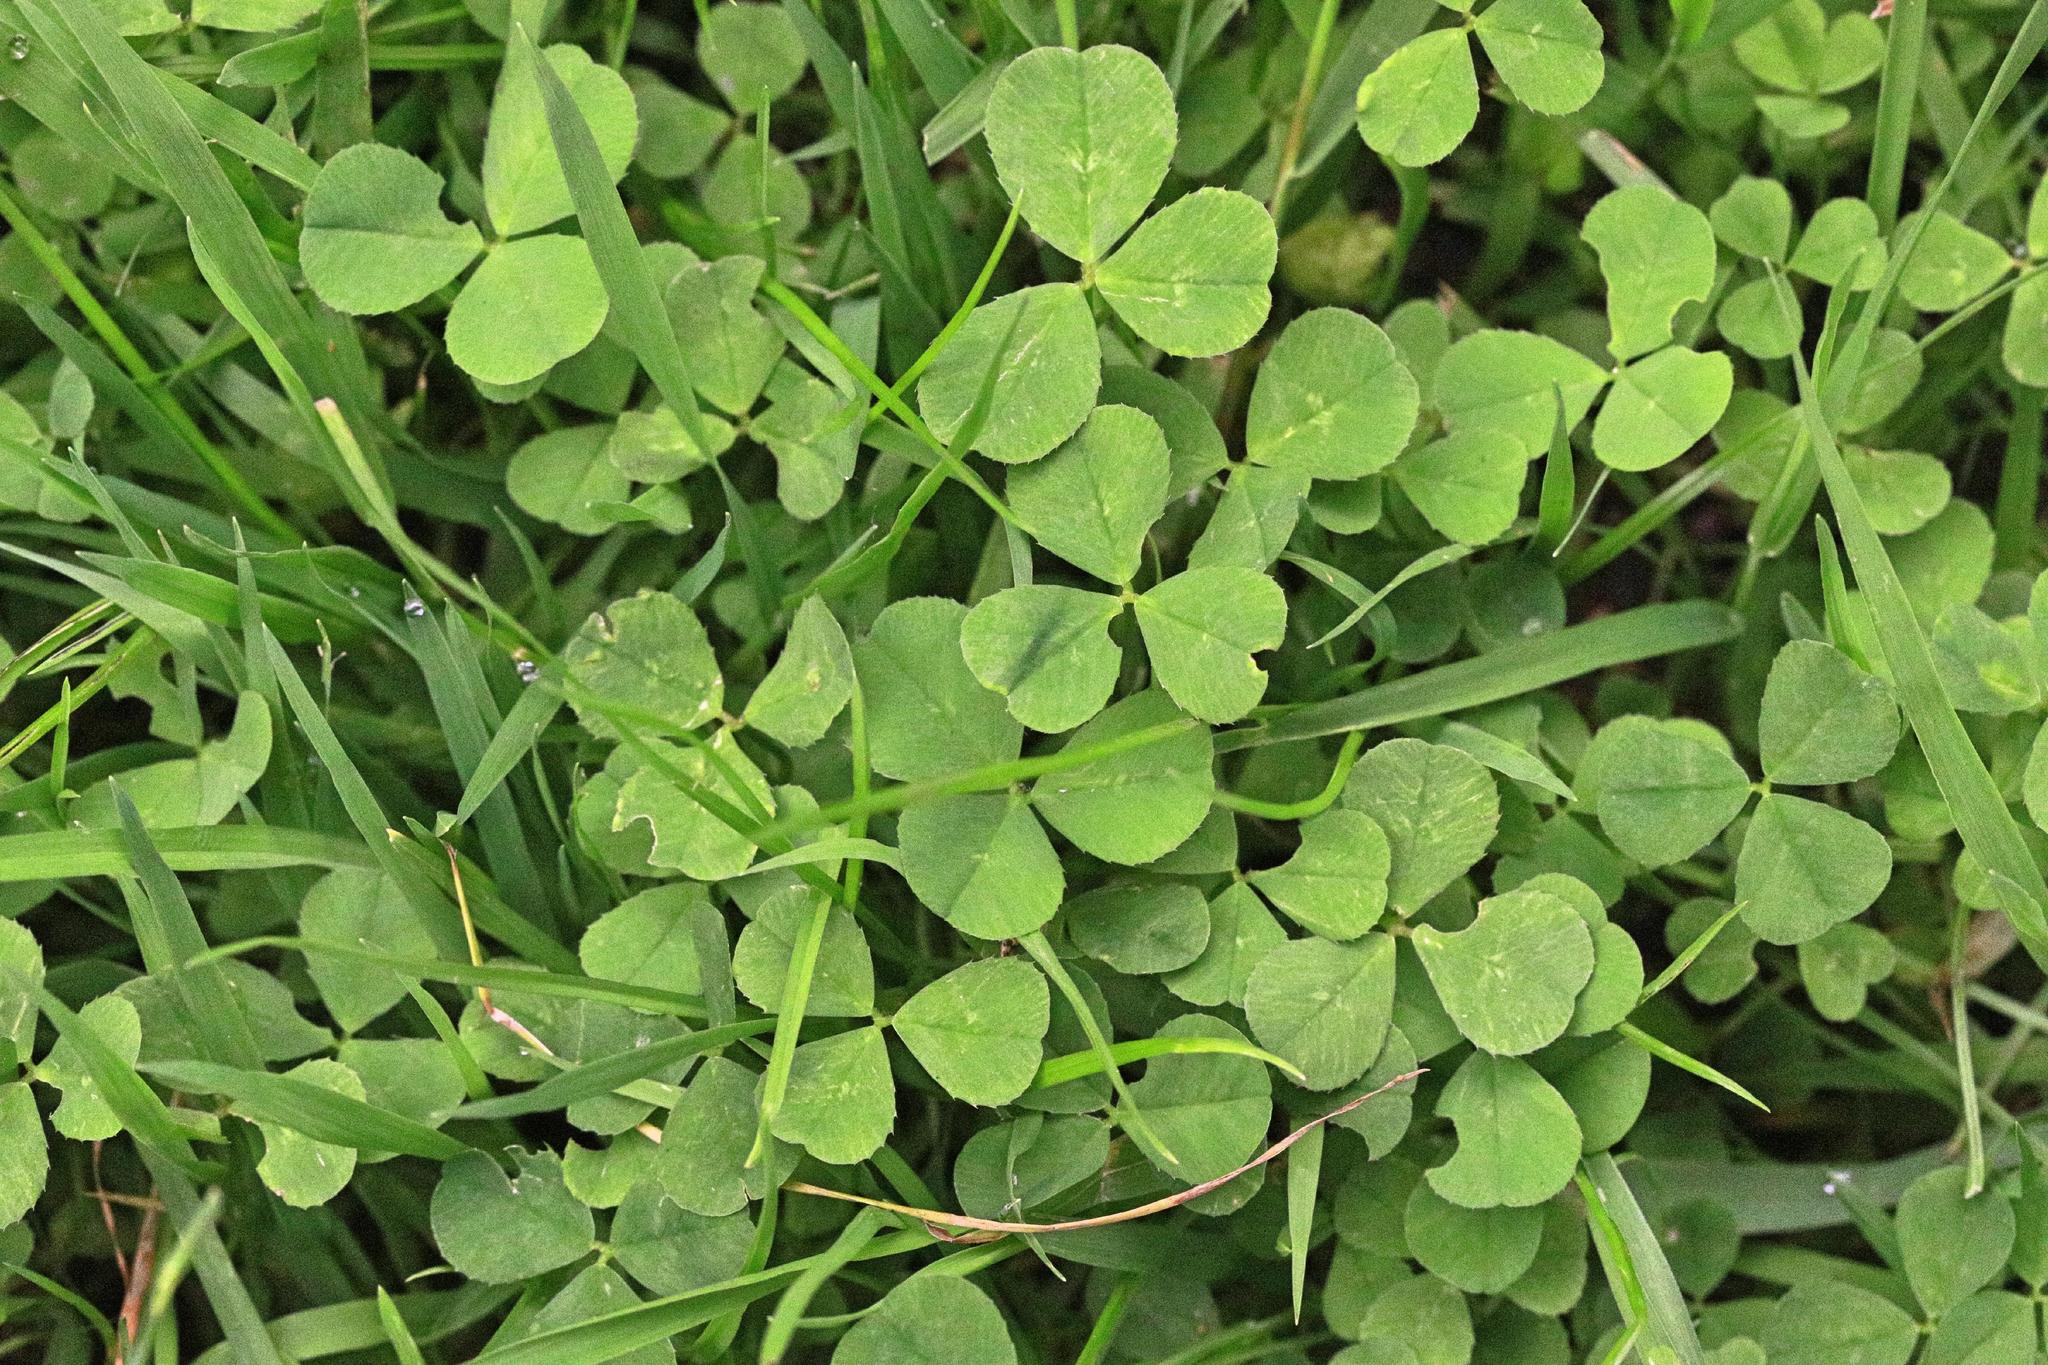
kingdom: Plantae
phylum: Tracheophyta
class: Magnoliopsida
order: Fabales
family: Fabaceae
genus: Trifolium
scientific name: Trifolium repens
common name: White clover
